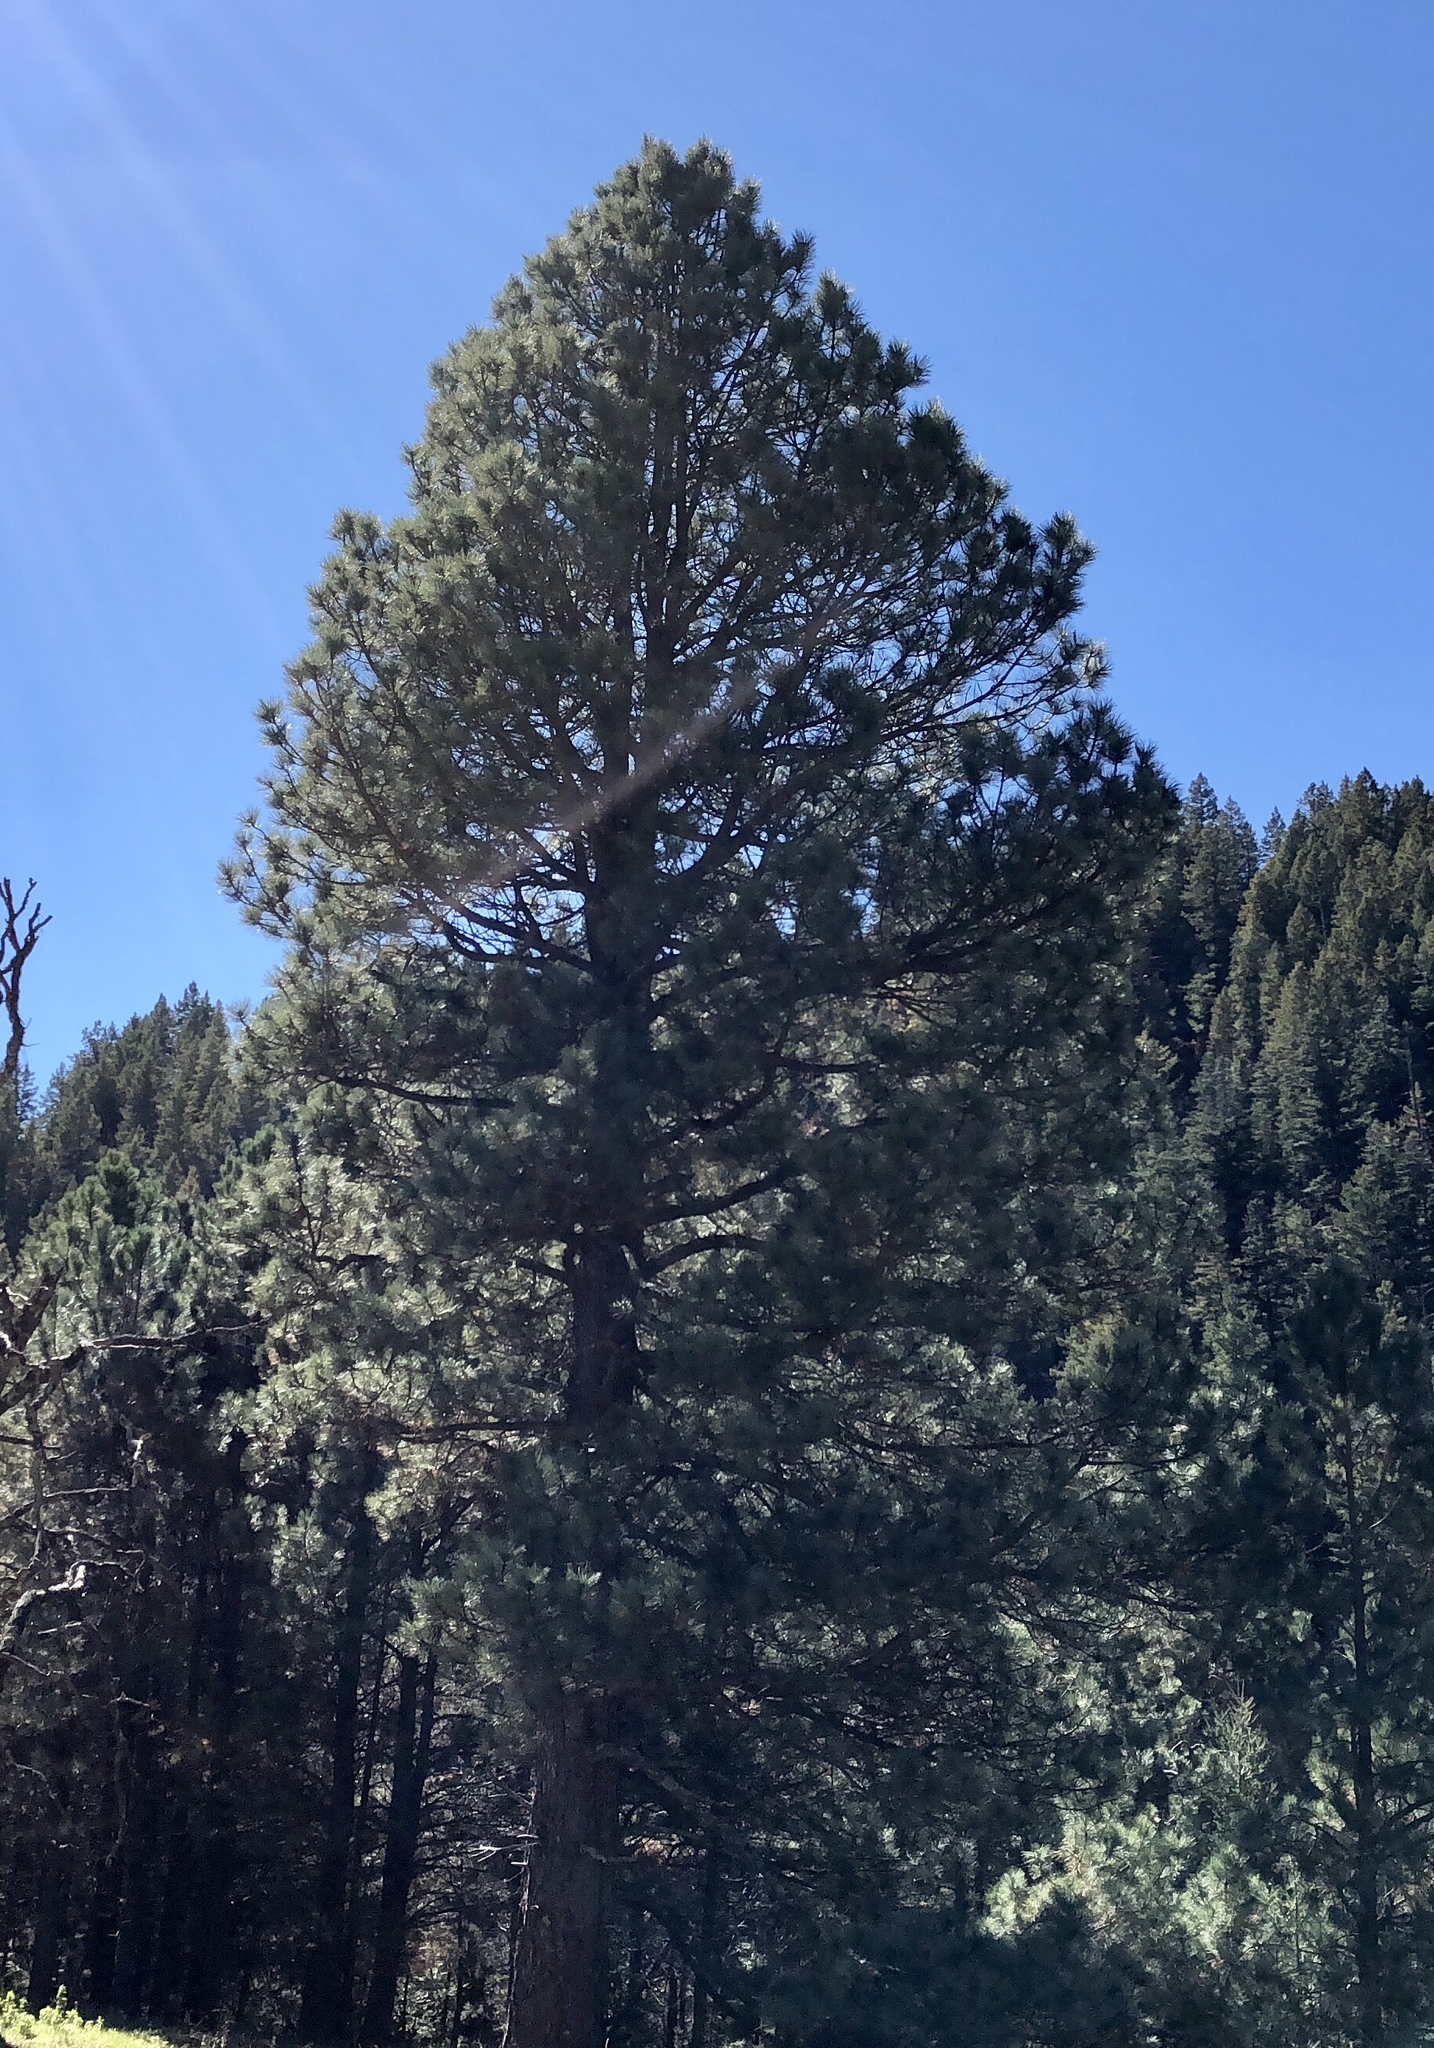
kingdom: Plantae
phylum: Tracheophyta
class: Pinopsida
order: Pinales
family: Pinaceae
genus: Pinus
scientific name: Pinus ponderosa
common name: Western yellow-pine
